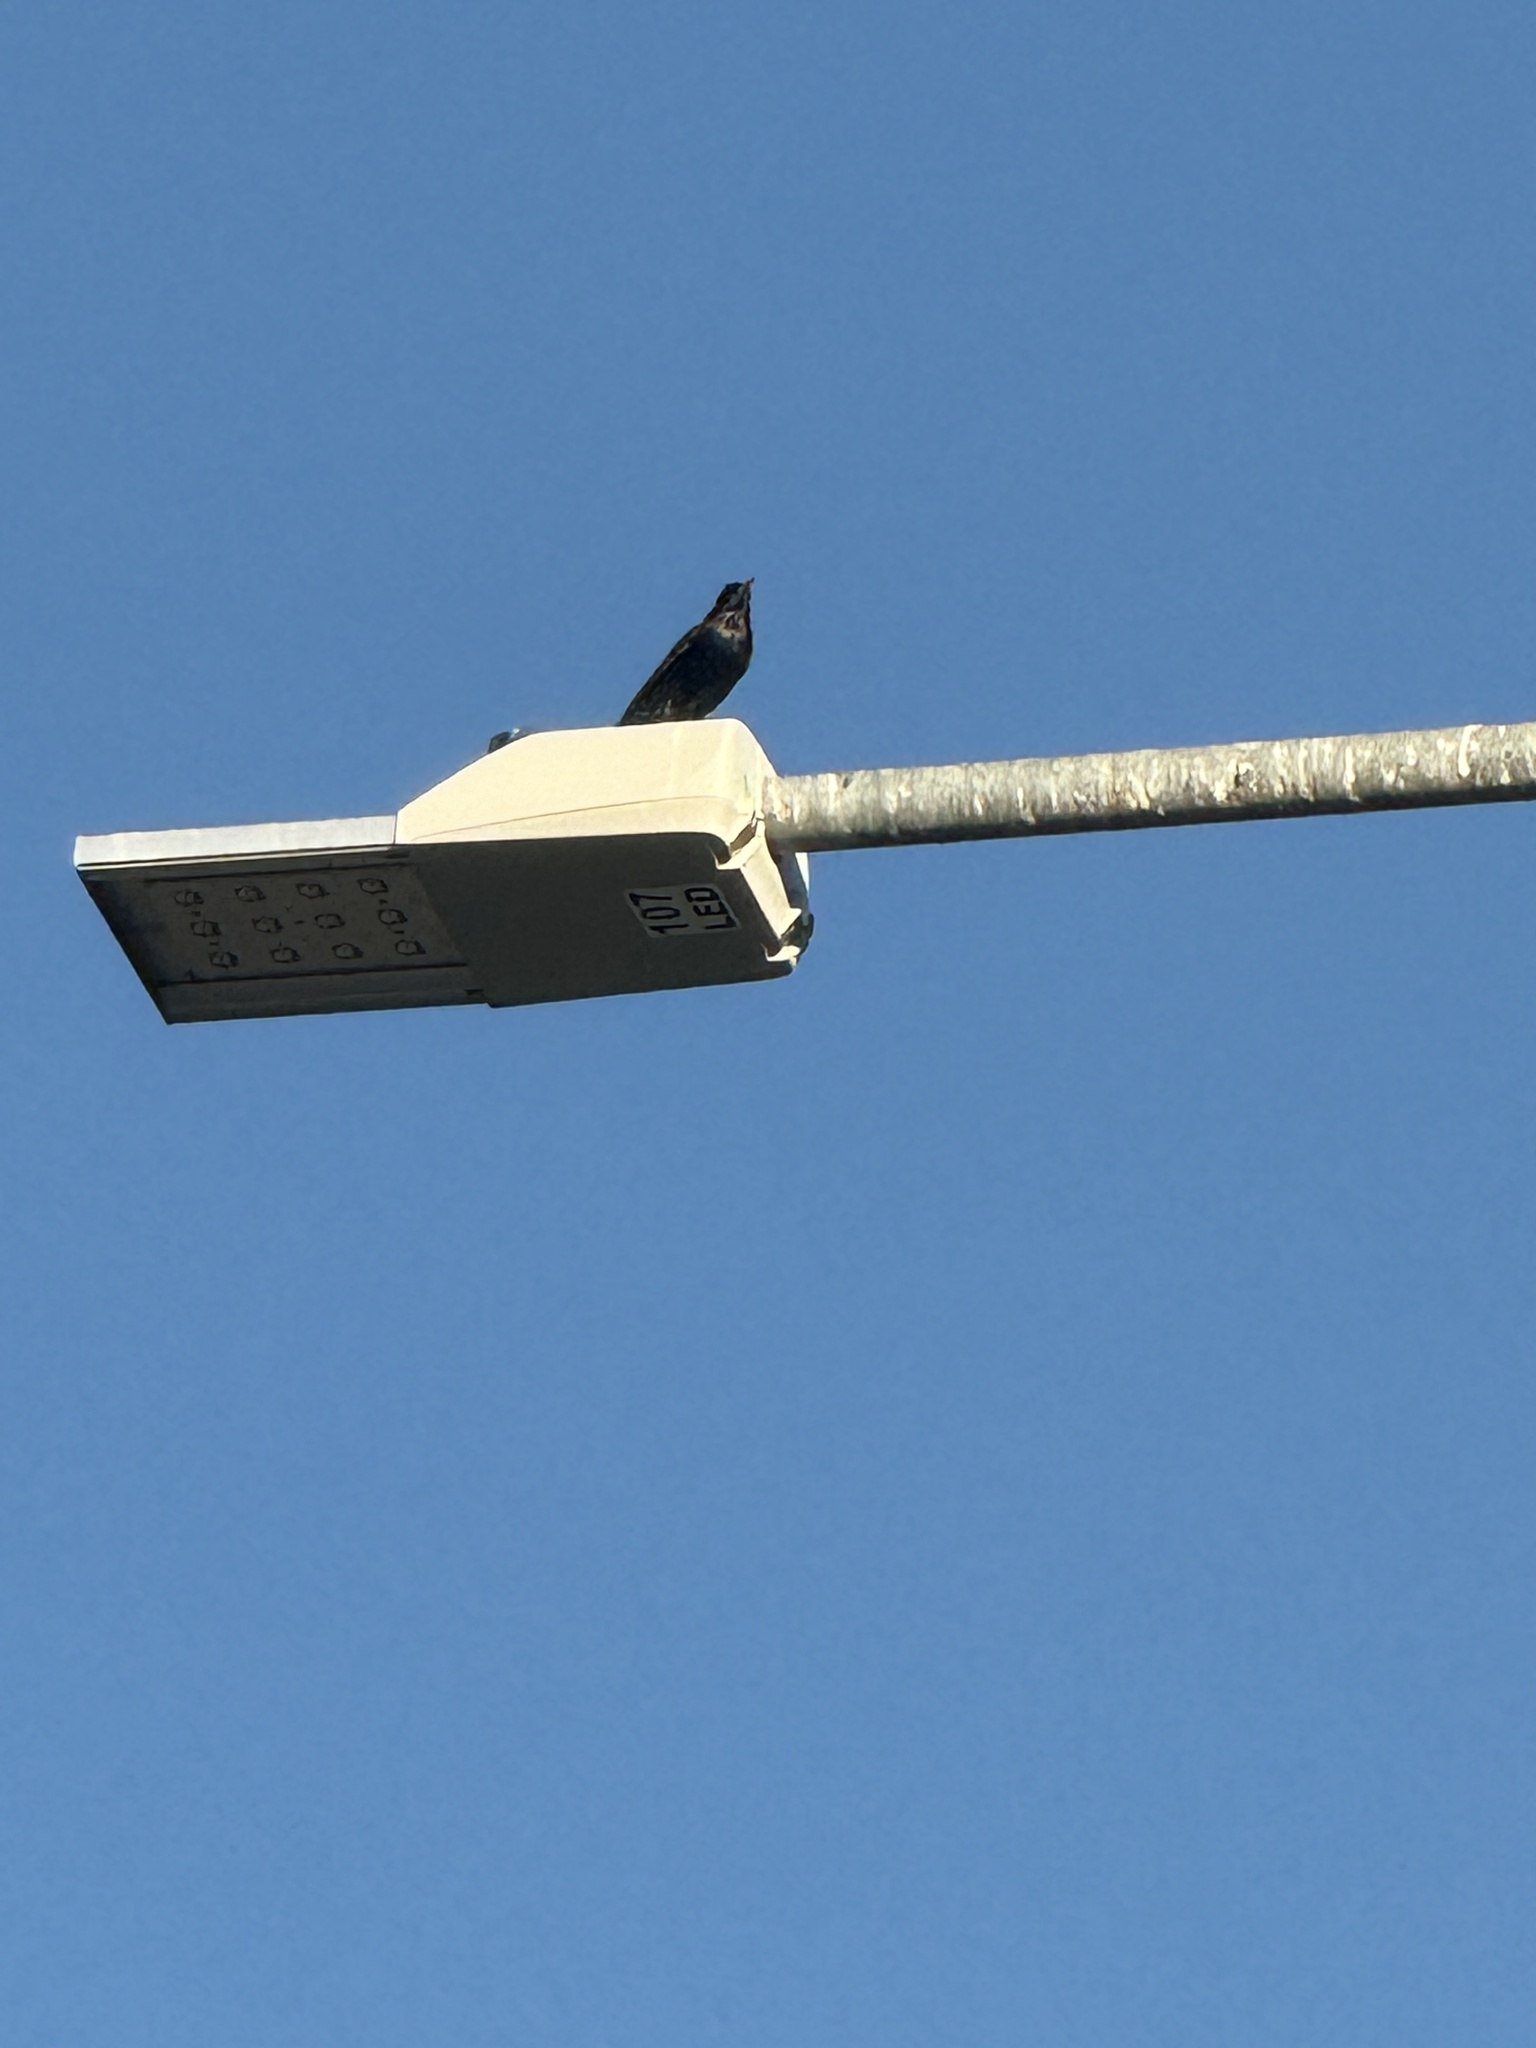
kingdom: Animalia
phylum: Chordata
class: Aves
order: Passeriformes
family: Sturnidae
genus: Sturnus
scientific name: Sturnus vulgaris
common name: Common starling
